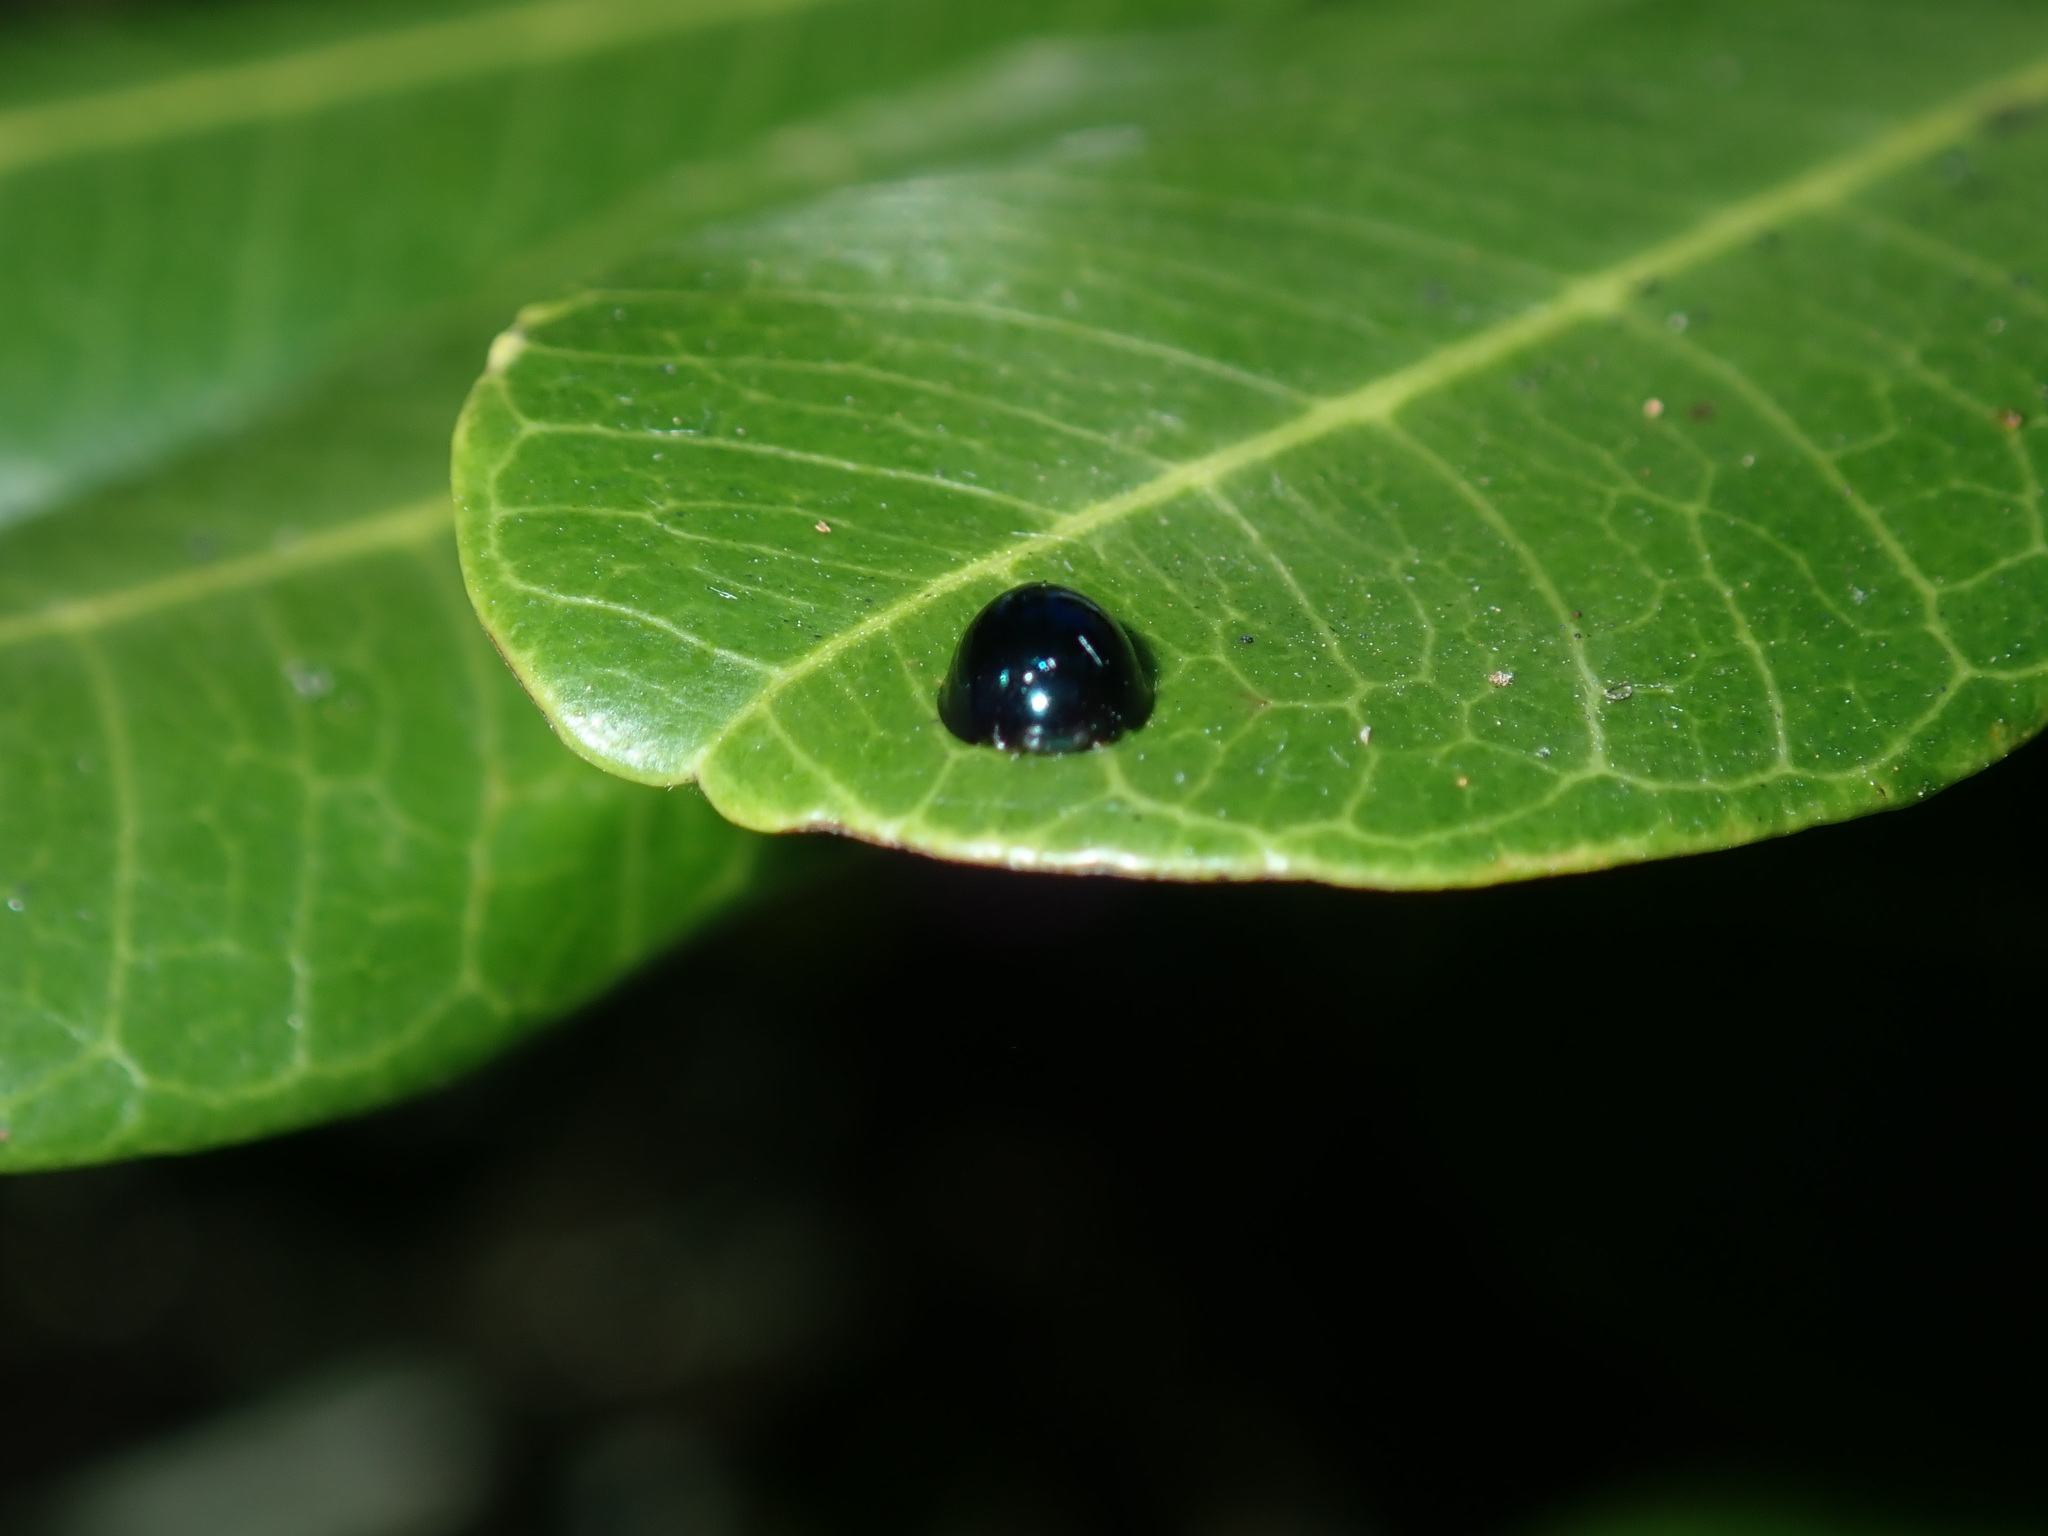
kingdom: Animalia
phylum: Arthropoda
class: Insecta
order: Coleoptera
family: Coccinellidae
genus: Halmus
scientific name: Halmus chalybeus
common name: Steel blue ladybird beetle
